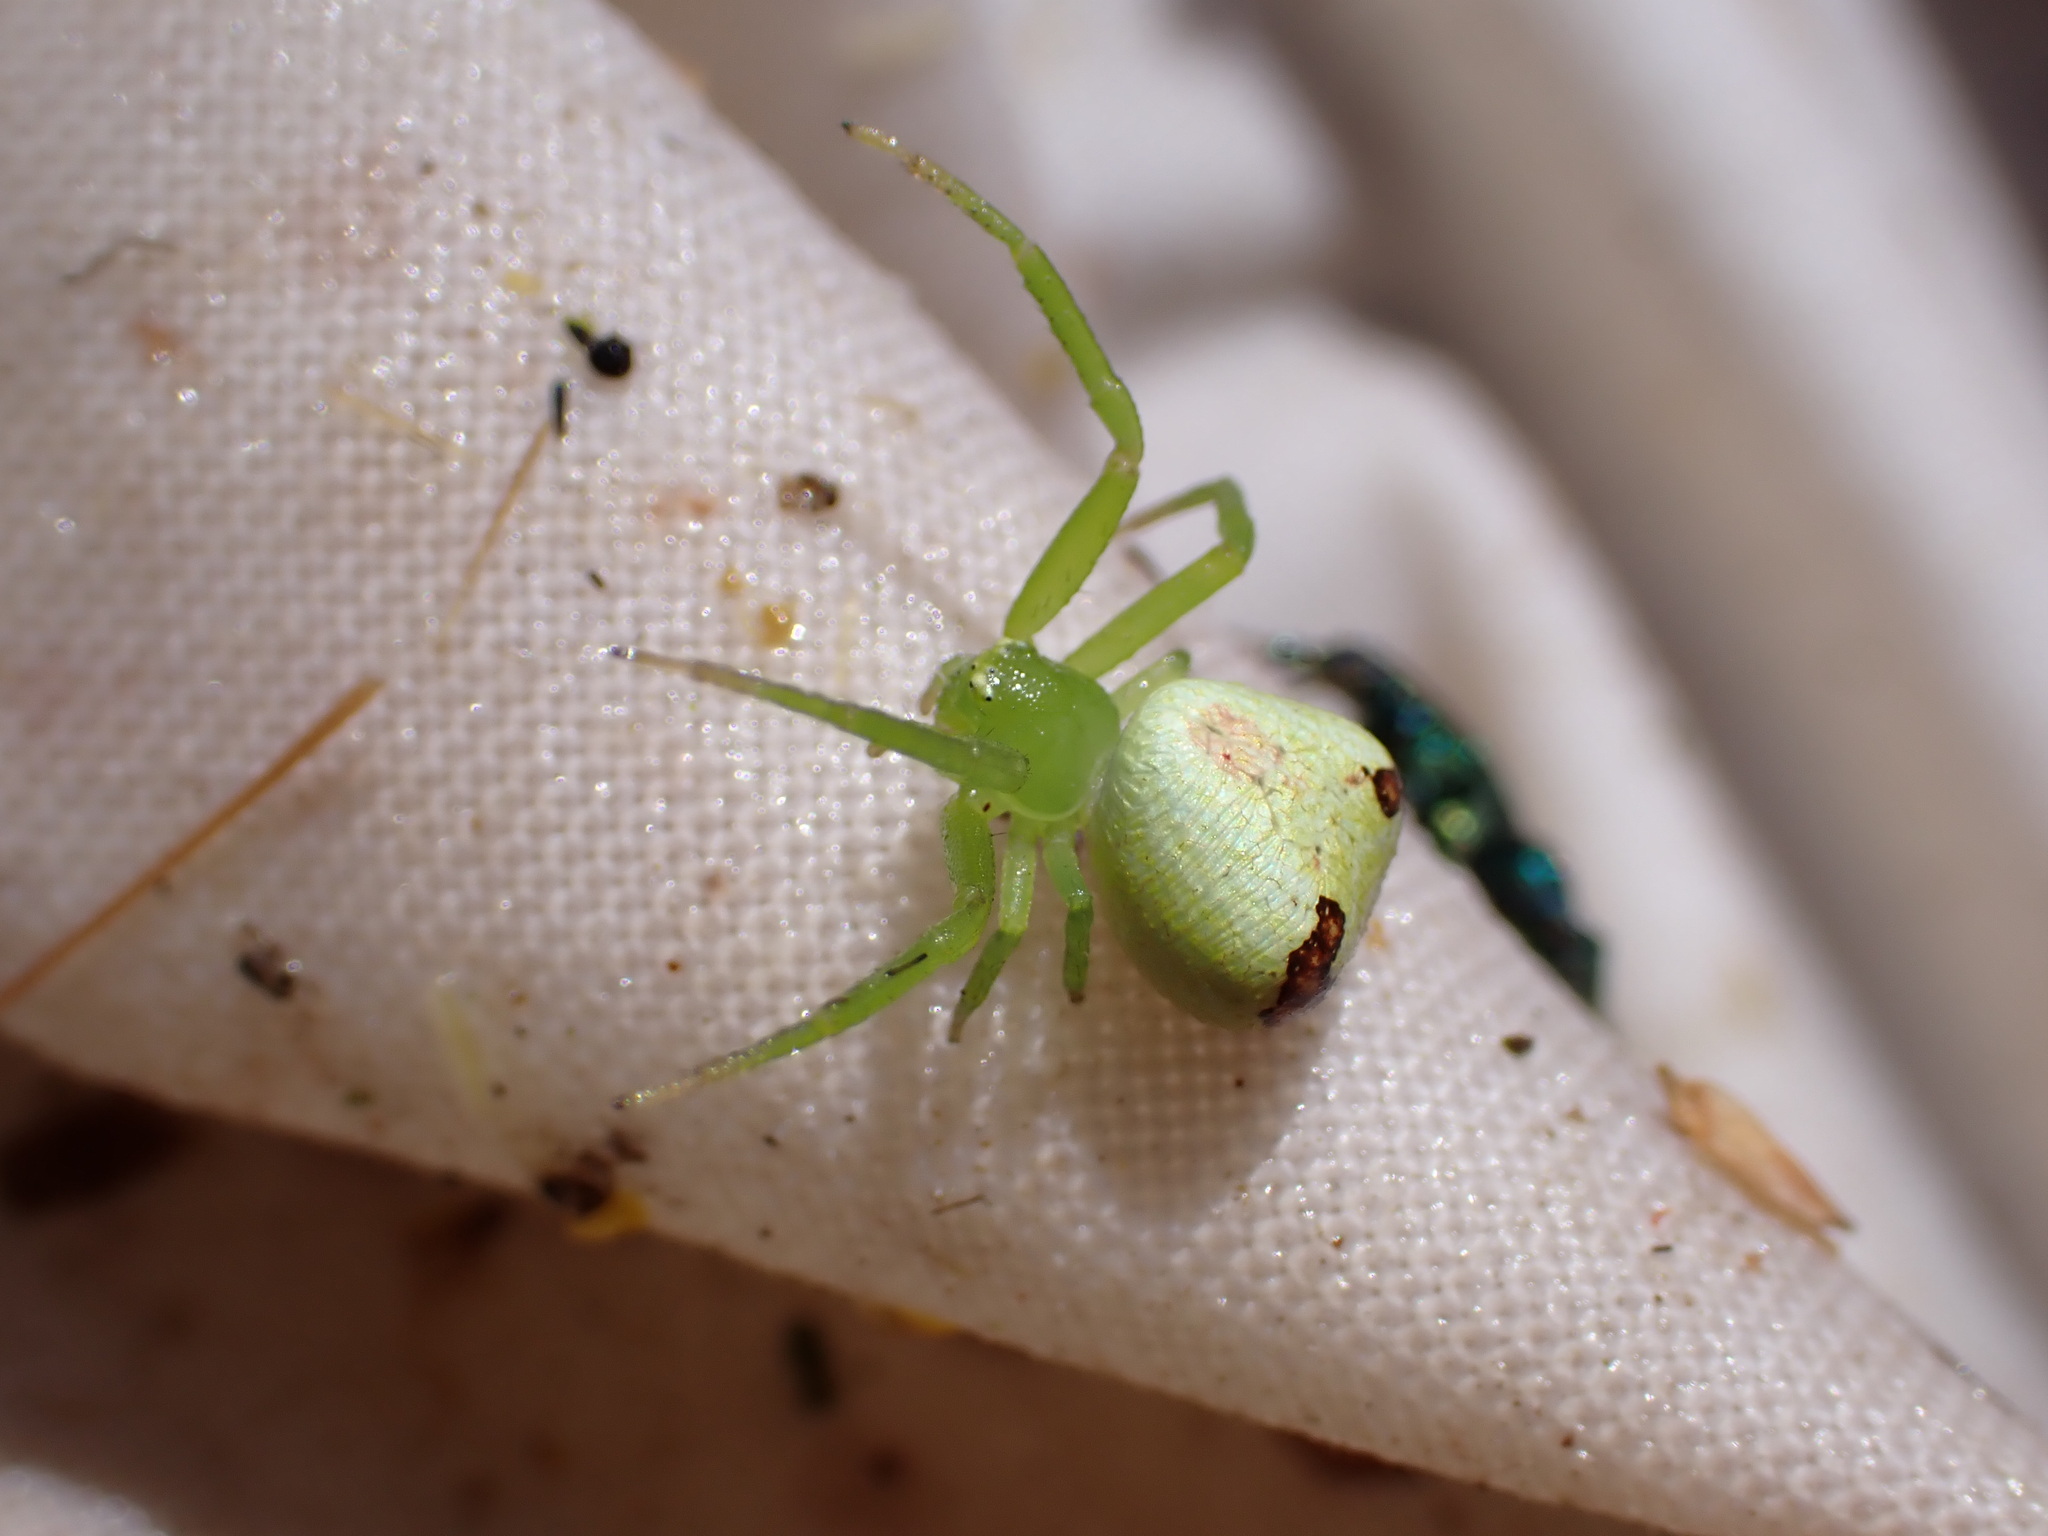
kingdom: Animalia
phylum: Arthropoda
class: Arachnida
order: Araneae
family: Thomisidae
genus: Ebrechtella
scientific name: Ebrechtella tricuspidata
